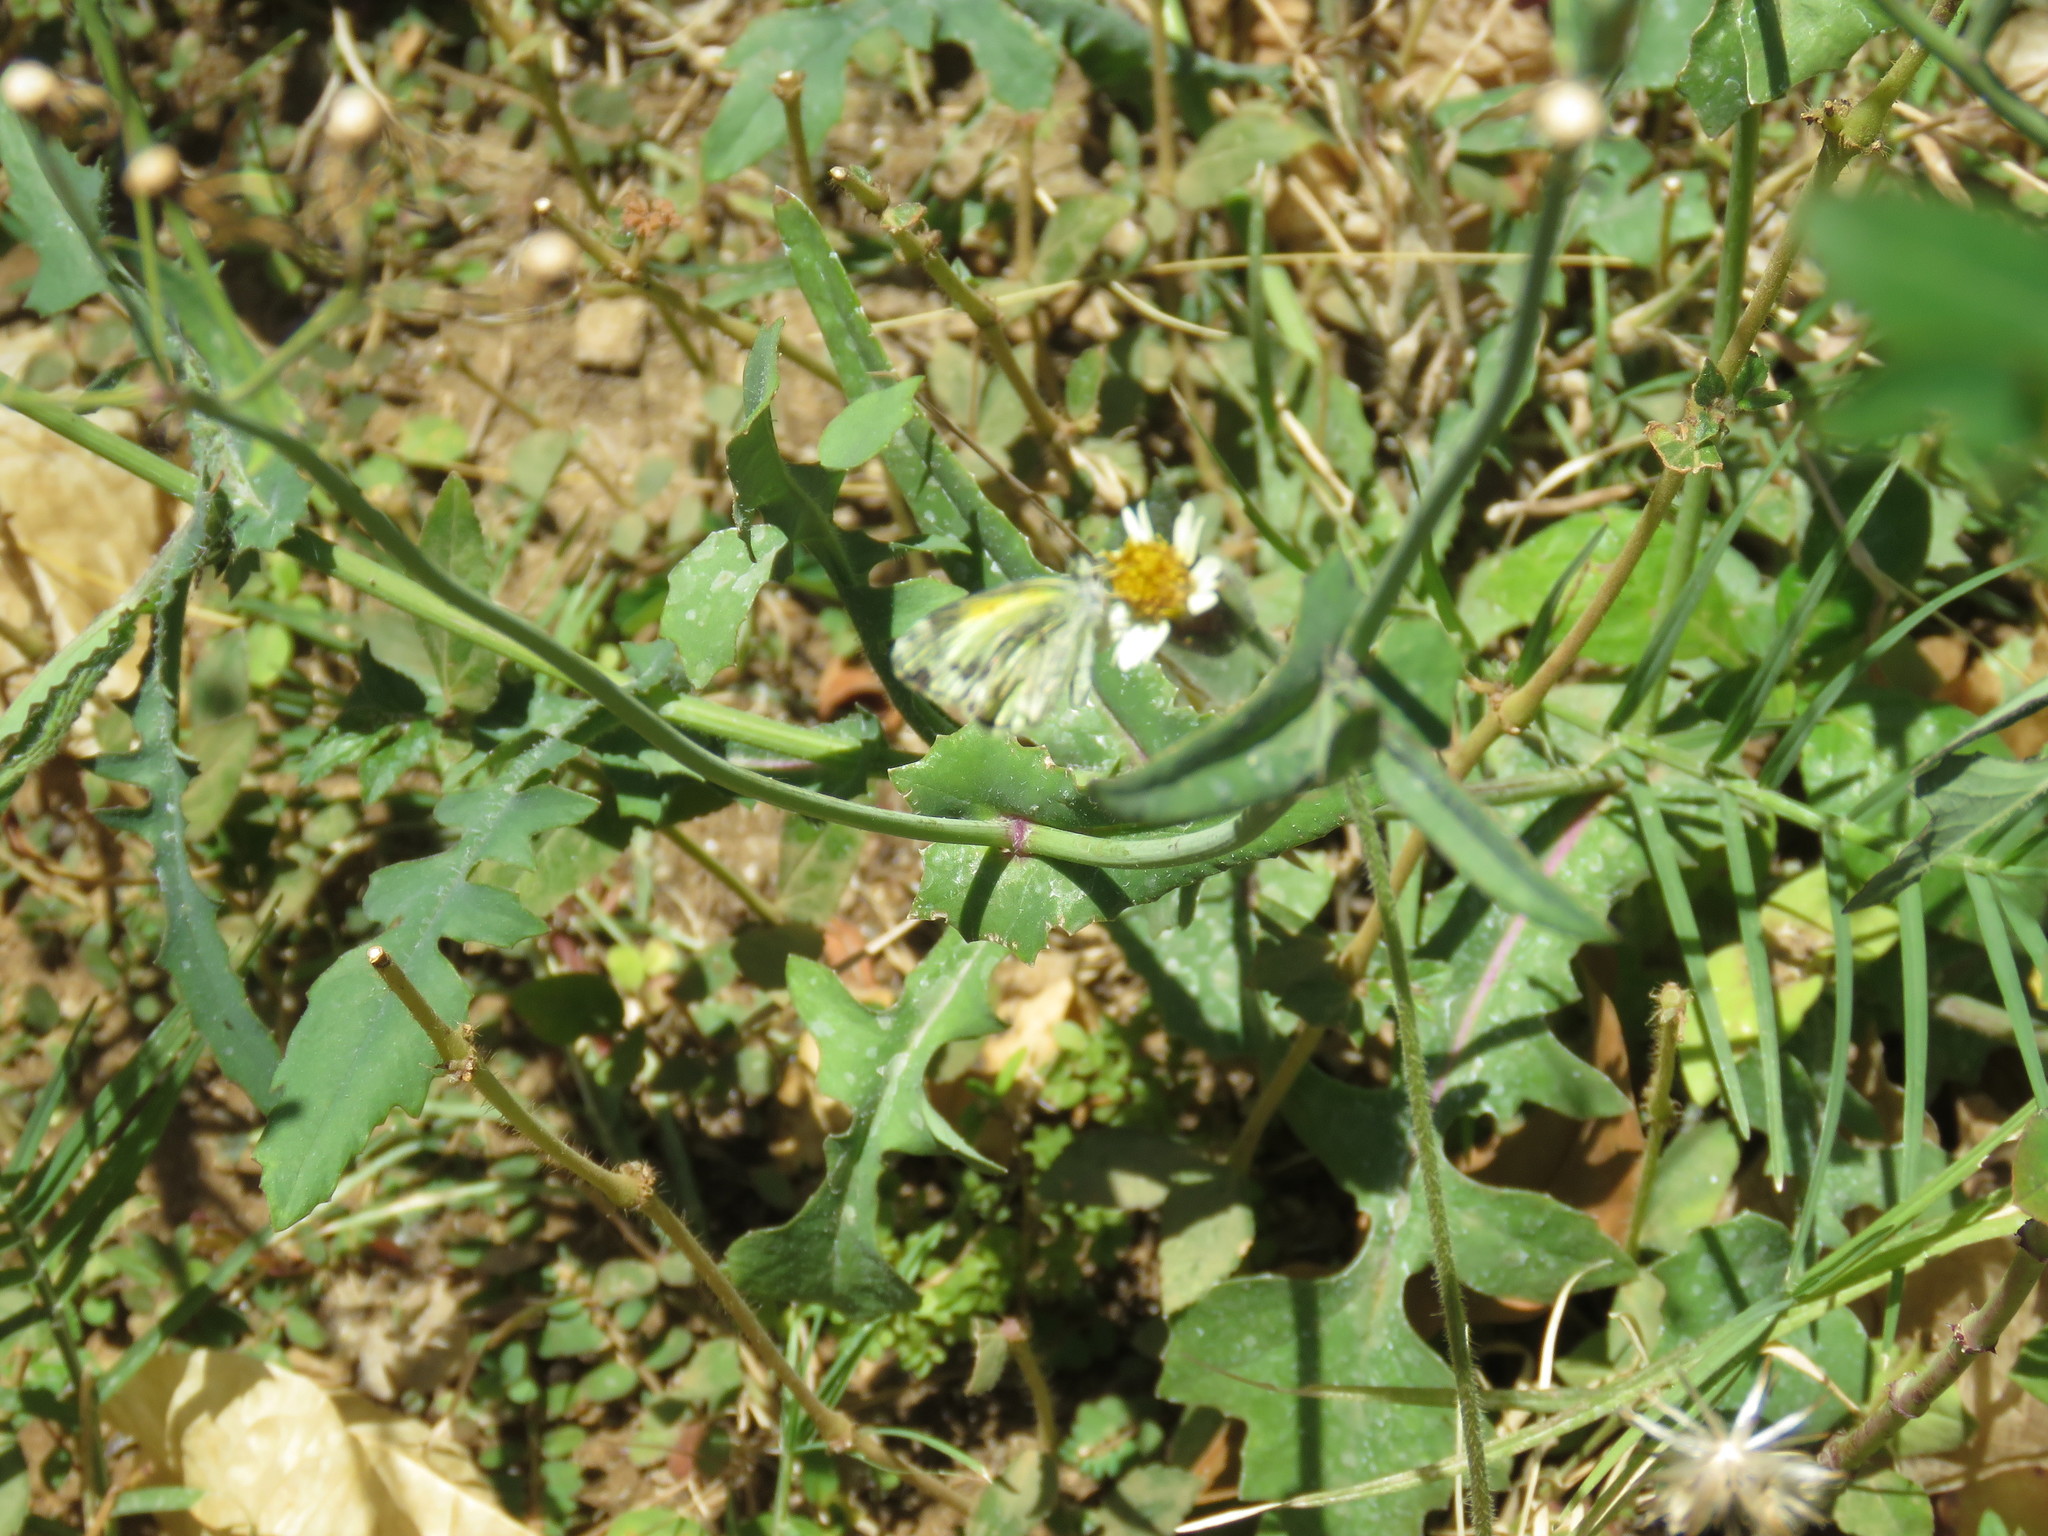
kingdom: Animalia
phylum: Arthropoda
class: Insecta
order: Lepidoptera
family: Pieridae
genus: Nathalis
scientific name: Nathalis iole
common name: Dainty sulphur
